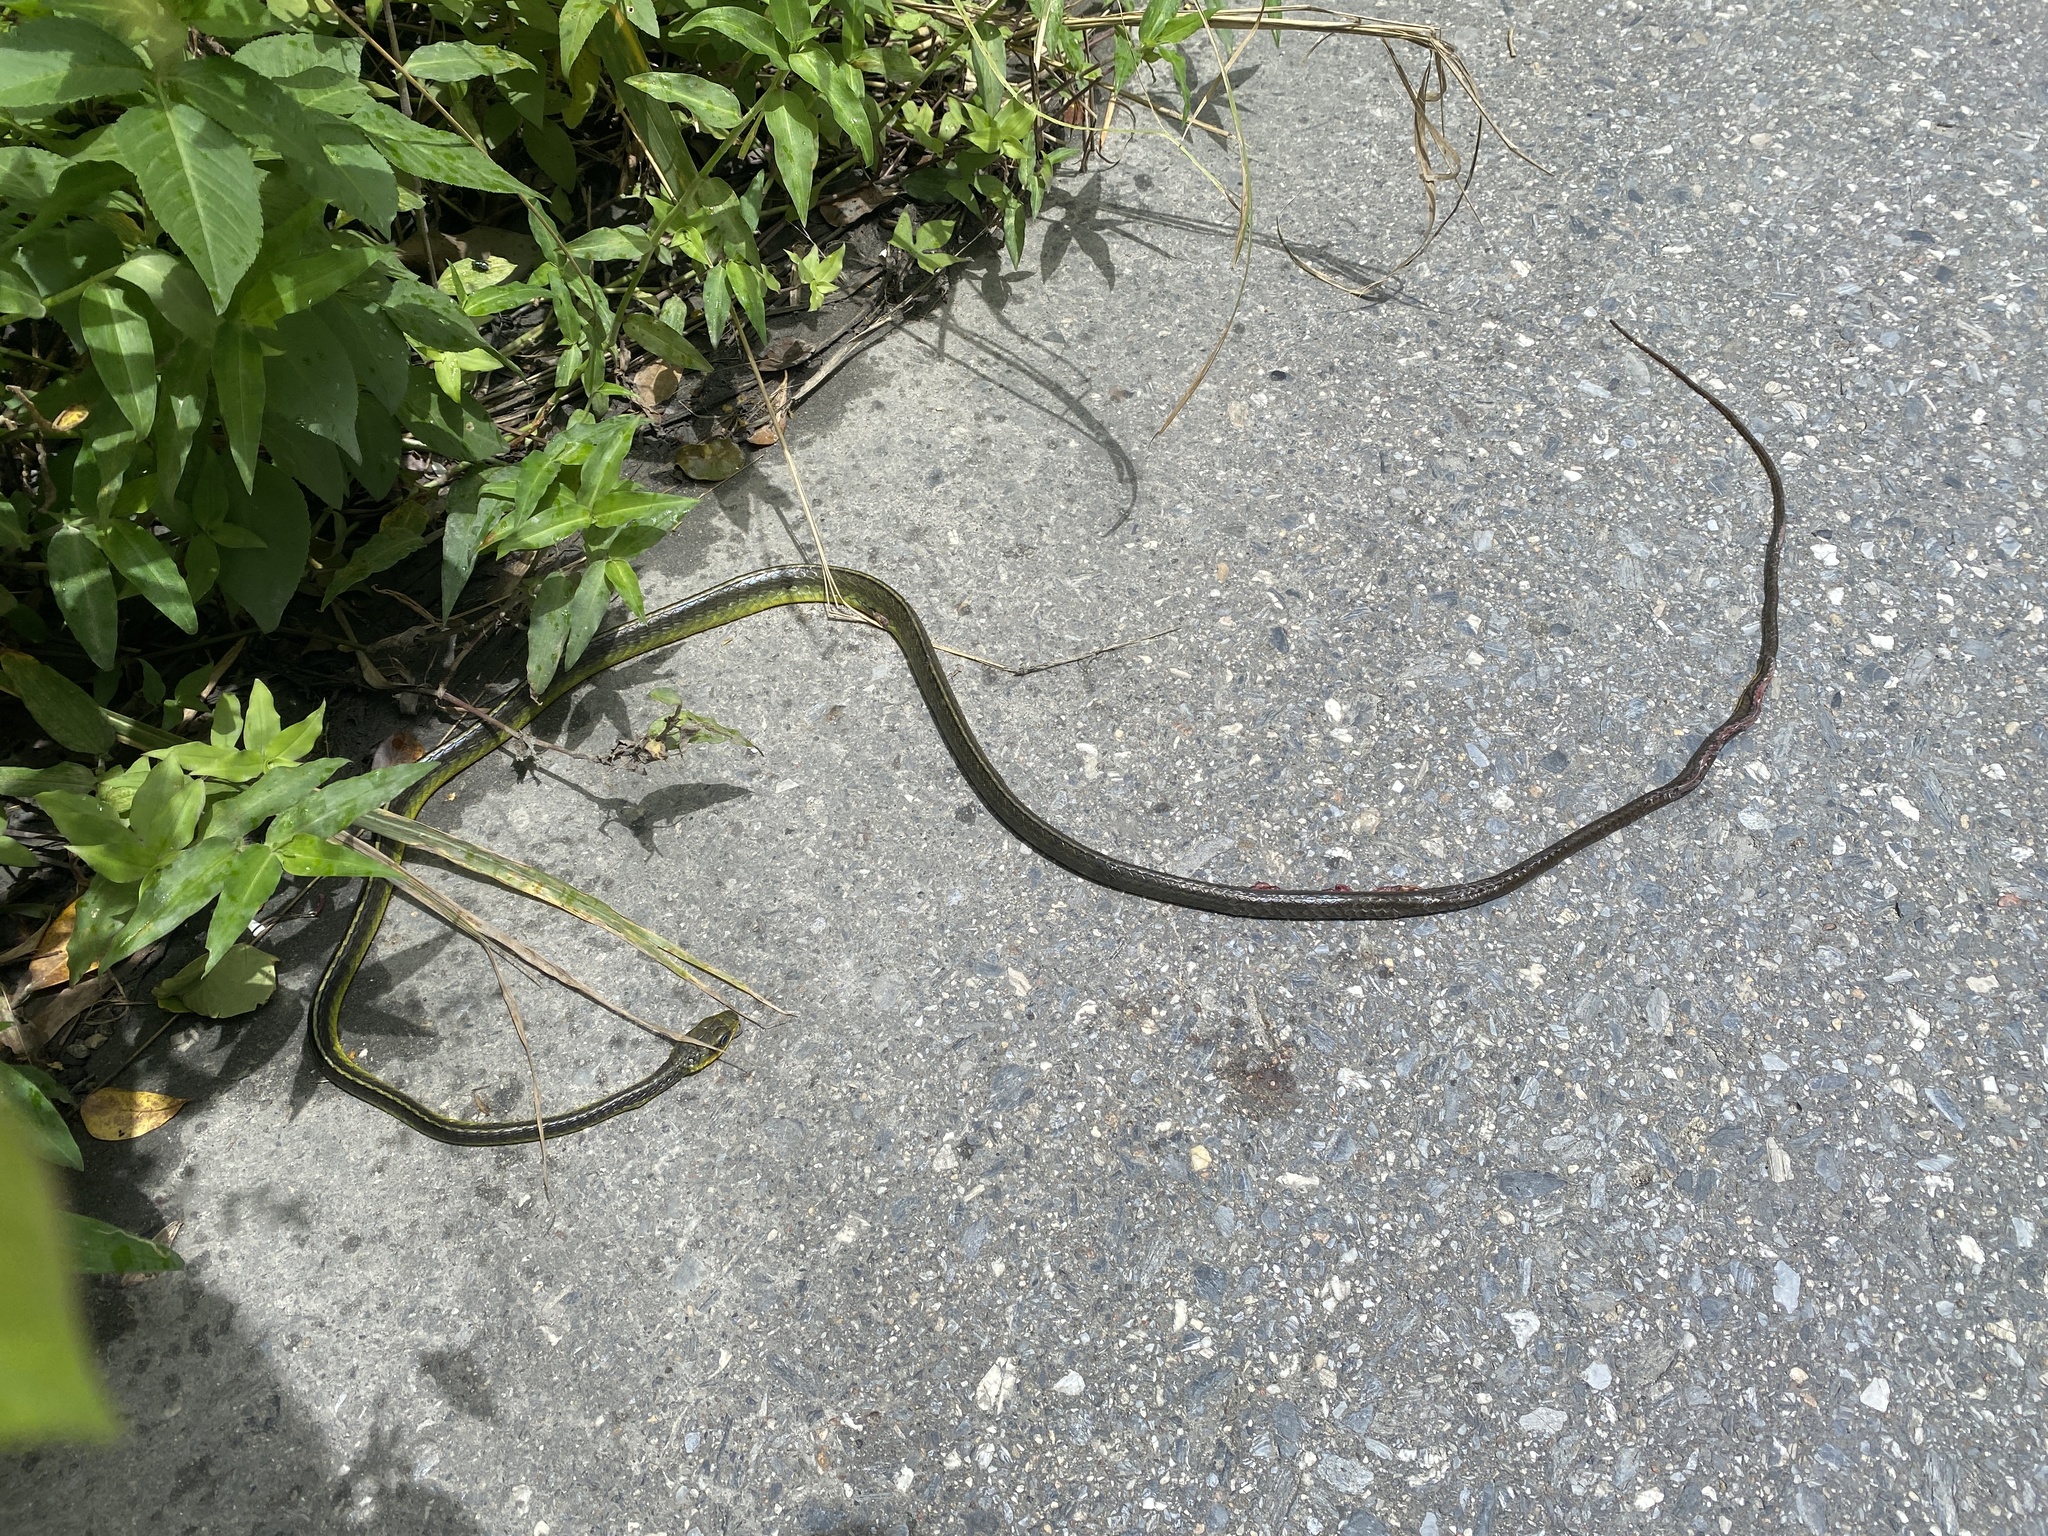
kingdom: Animalia
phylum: Chordata
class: Squamata
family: Colubridae
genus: Chironius
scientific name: Chironius septentrionalis
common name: South american sipo
